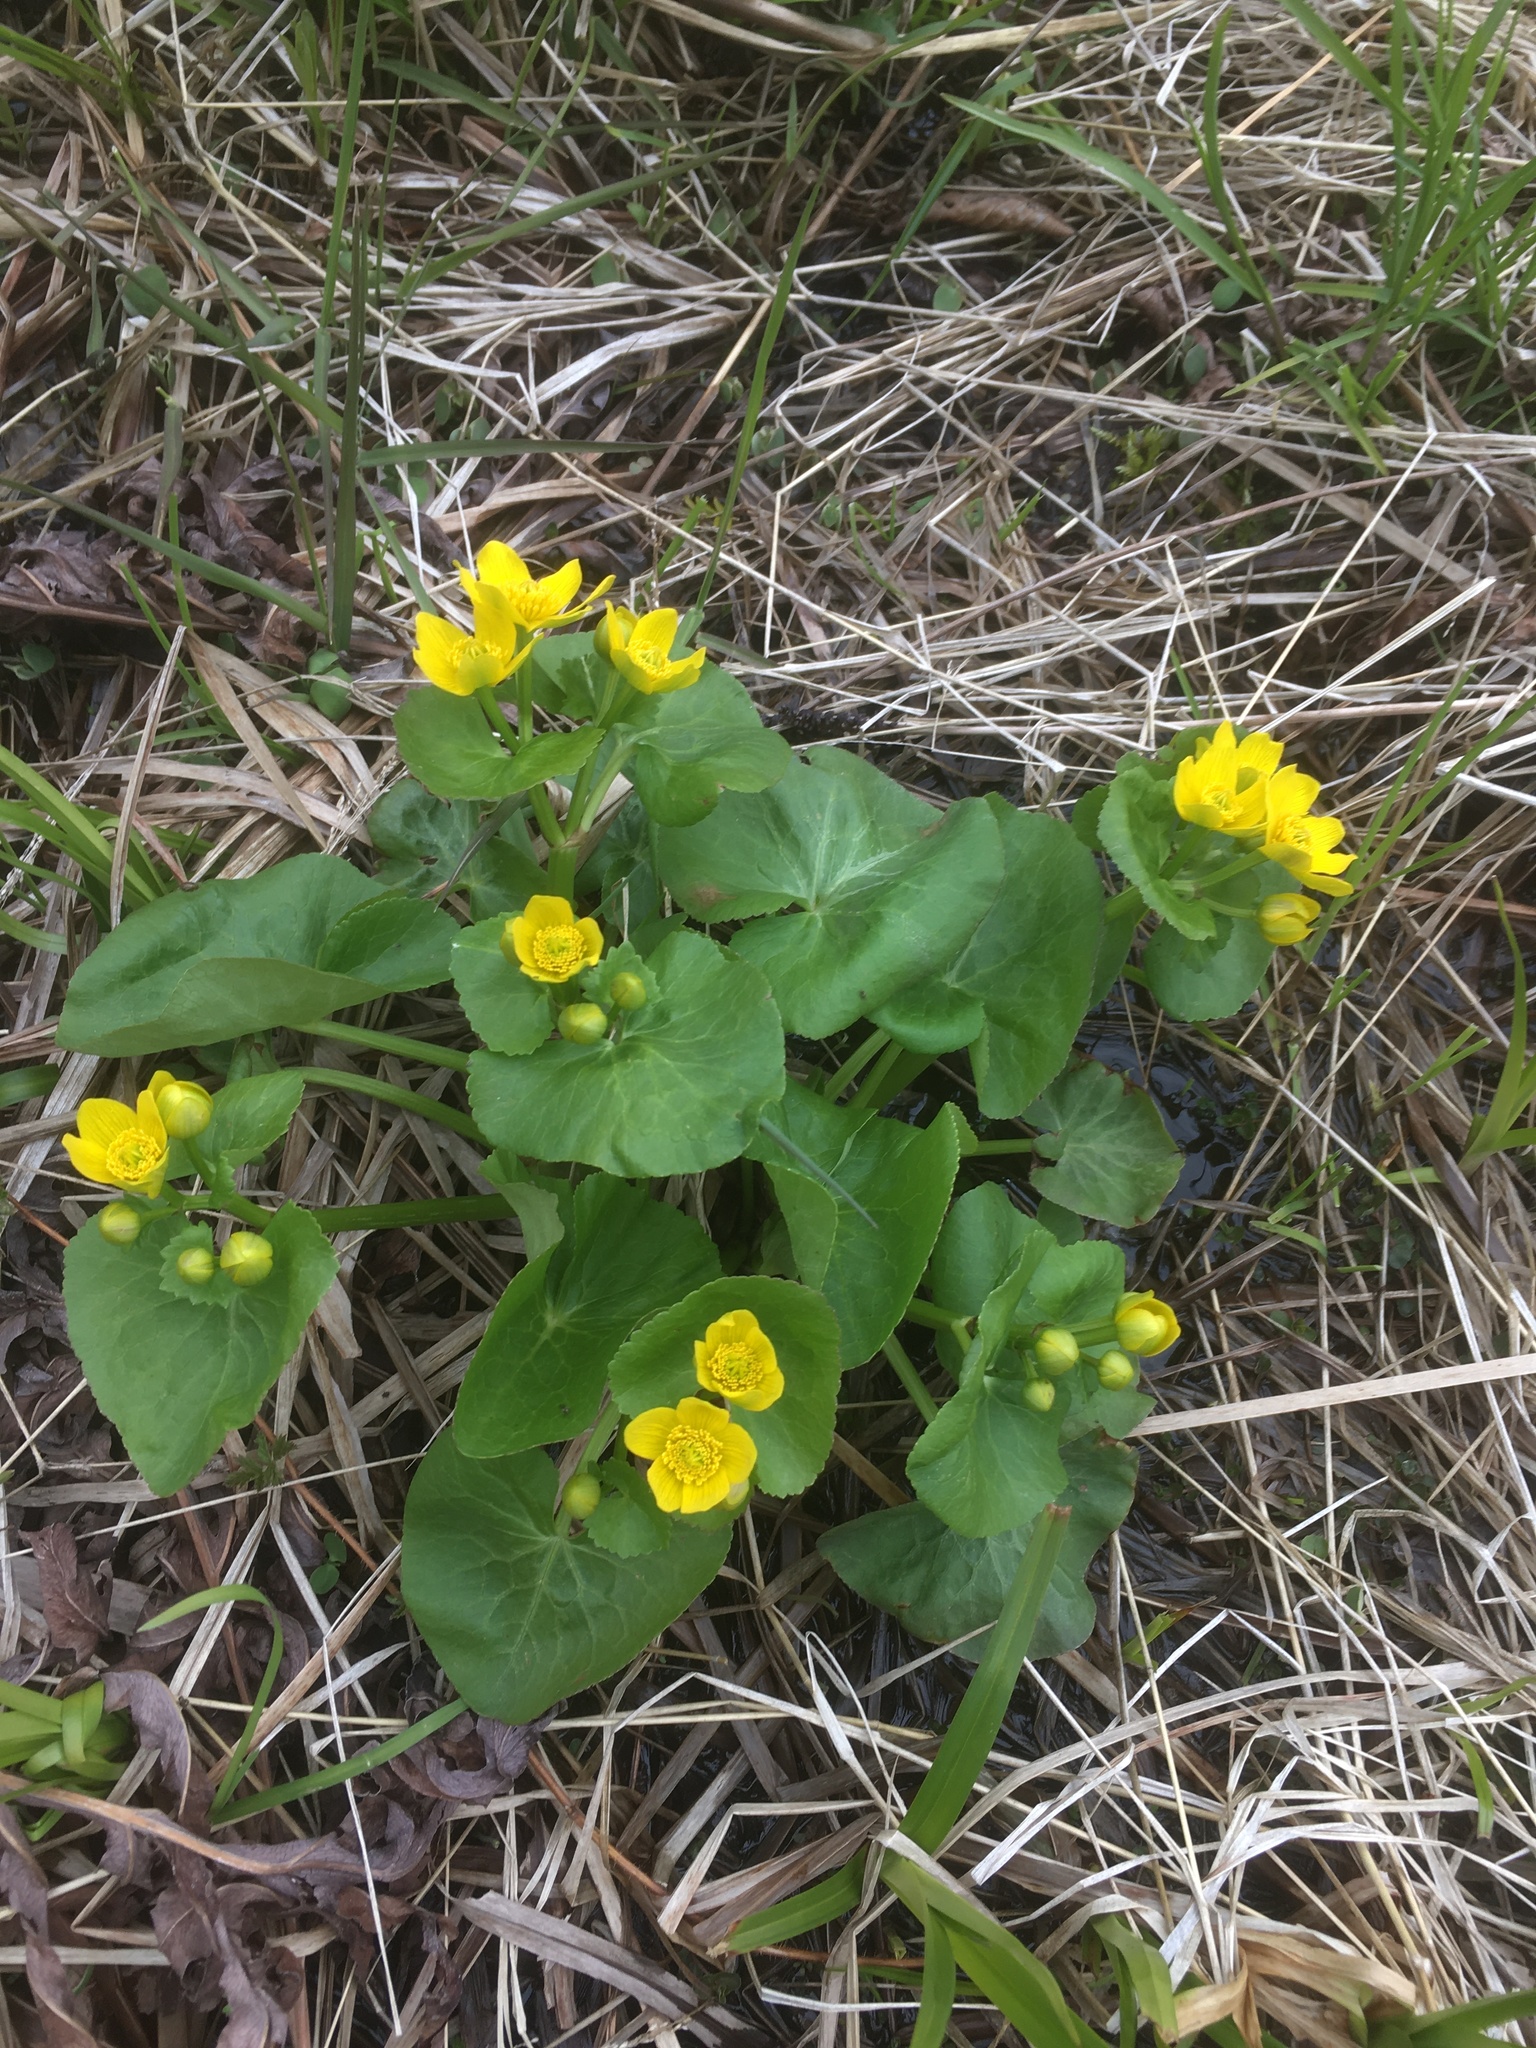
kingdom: Plantae
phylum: Tracheophyta
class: Magnoliopsida
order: Ranunculales
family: Ranunculaceae
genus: Caltha
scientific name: Caltha palustris
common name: Marsh marigold
